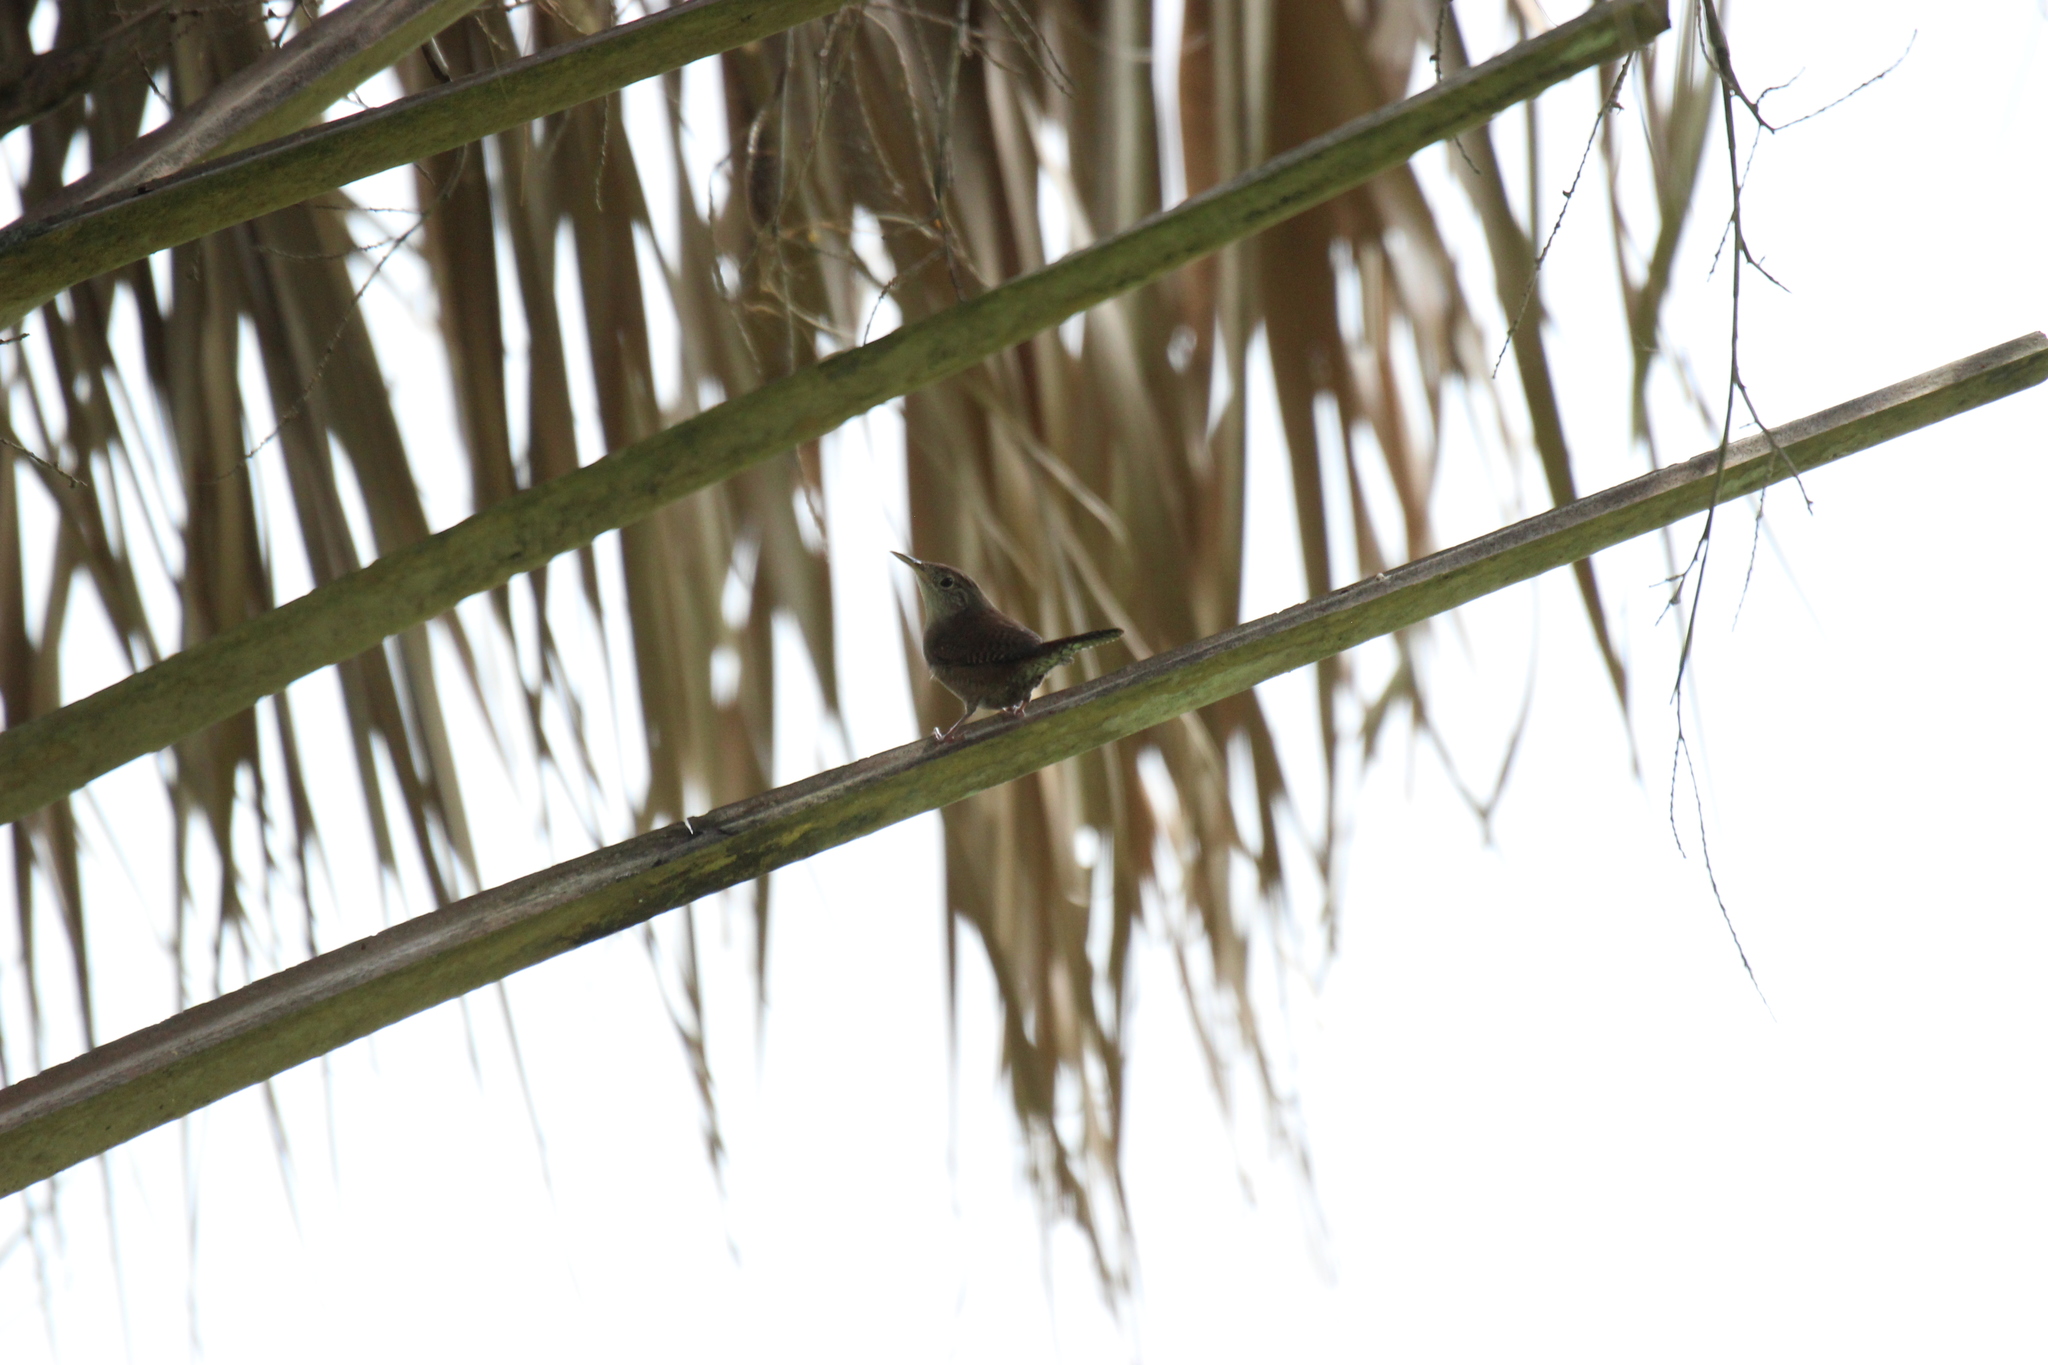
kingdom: Animalia
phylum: Chordata
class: Aves
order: Passeriformes
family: Troglodytidae
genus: Troglodytes
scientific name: Troglodytes aedon
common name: House wren
